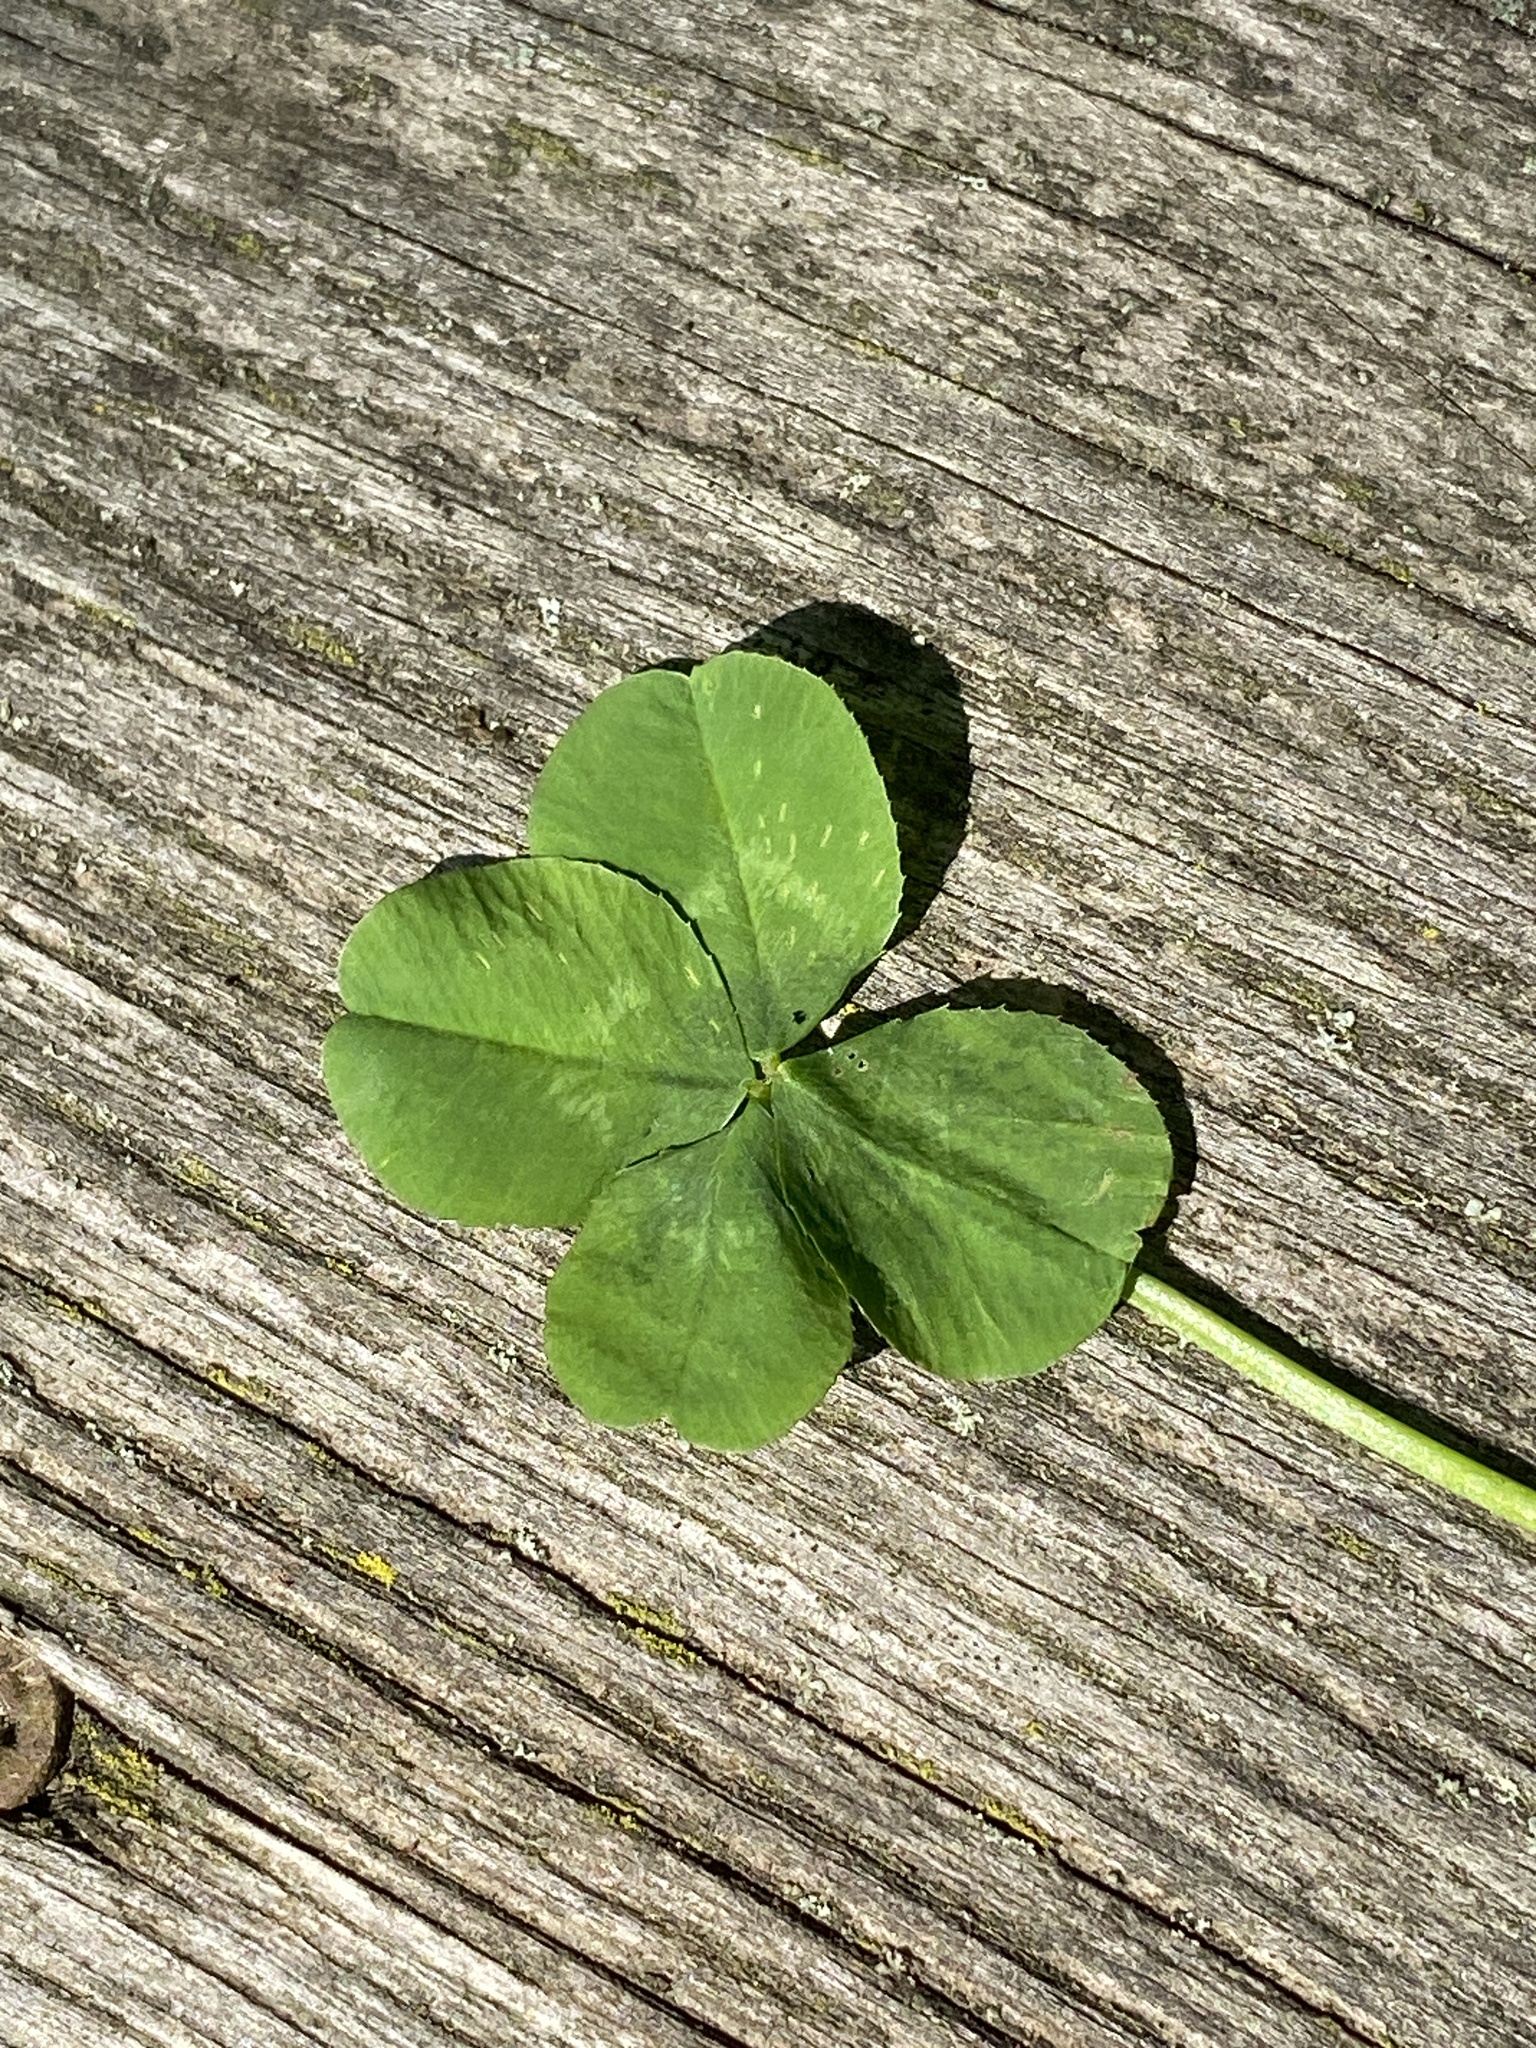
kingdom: Plantae
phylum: Tracheophyta
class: Magnoliopsida
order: Fabales
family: Fabaceae
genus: Trifolium
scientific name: Trifolium repens
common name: White clover
